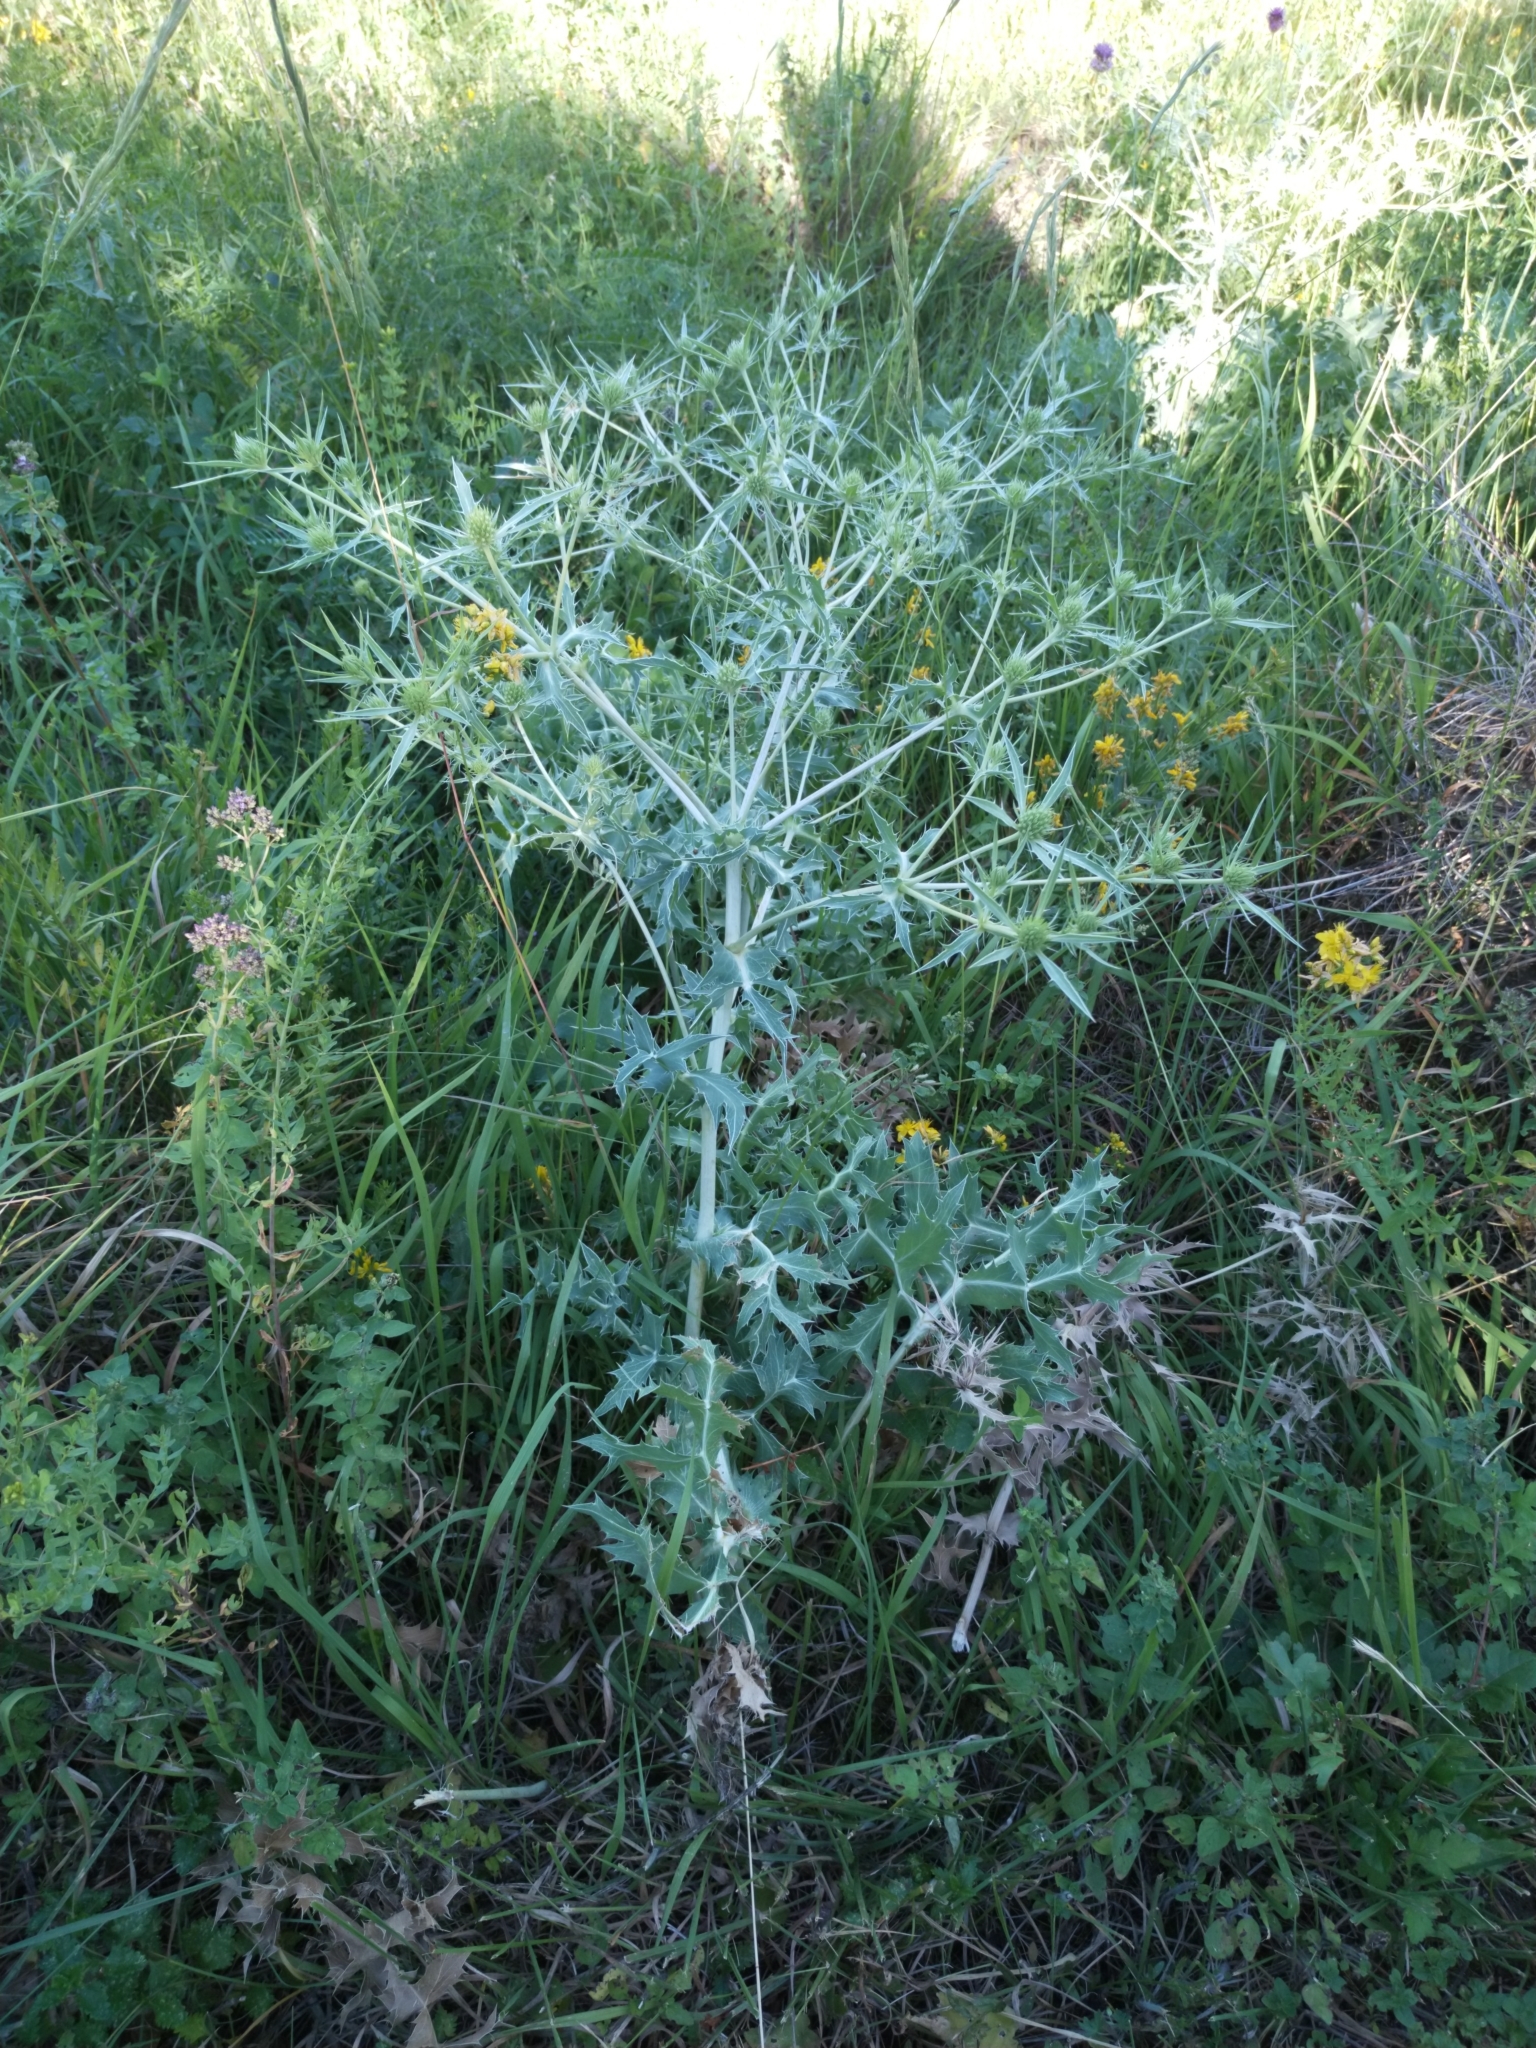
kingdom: Plantae
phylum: Tracheophyta
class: Magnoliopsida
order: Apiales
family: Apiaceae
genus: Eryngium
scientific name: Eryngium campestre
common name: Field eryngo
